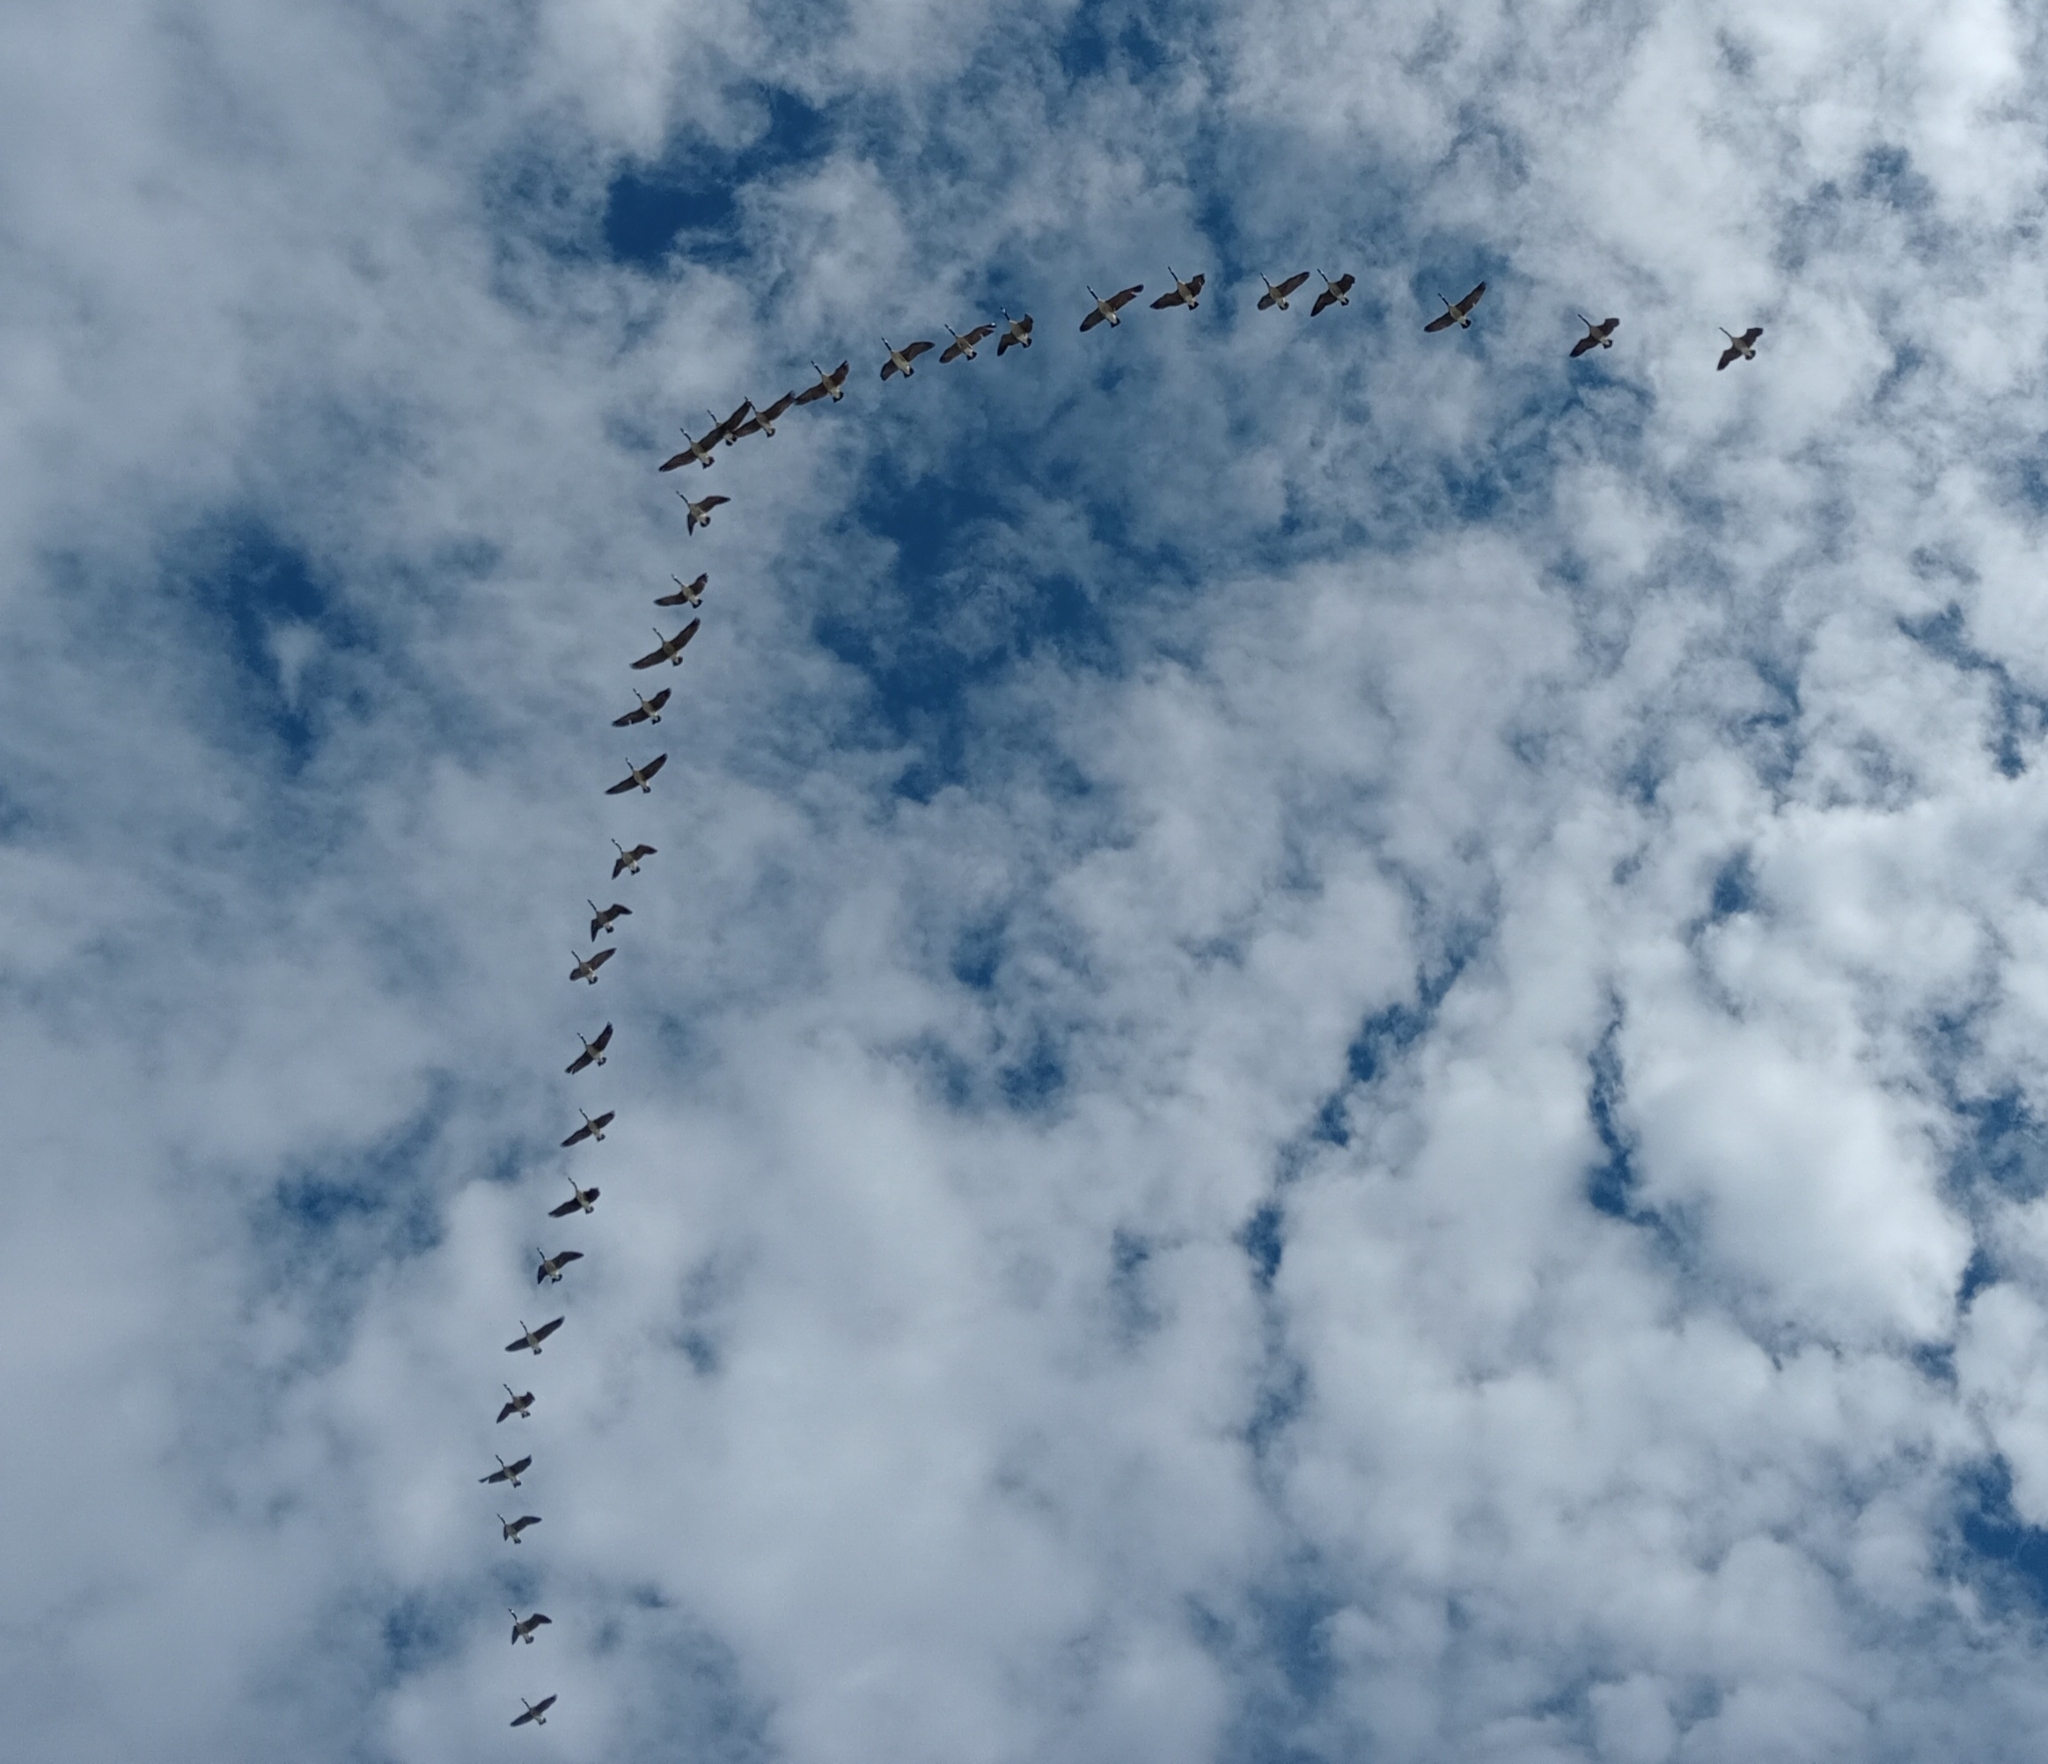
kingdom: Animalia
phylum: Chordata
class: Aves
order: Anseriformes
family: Anatidae
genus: Branta
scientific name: Branta canadensis
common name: Canada goose
